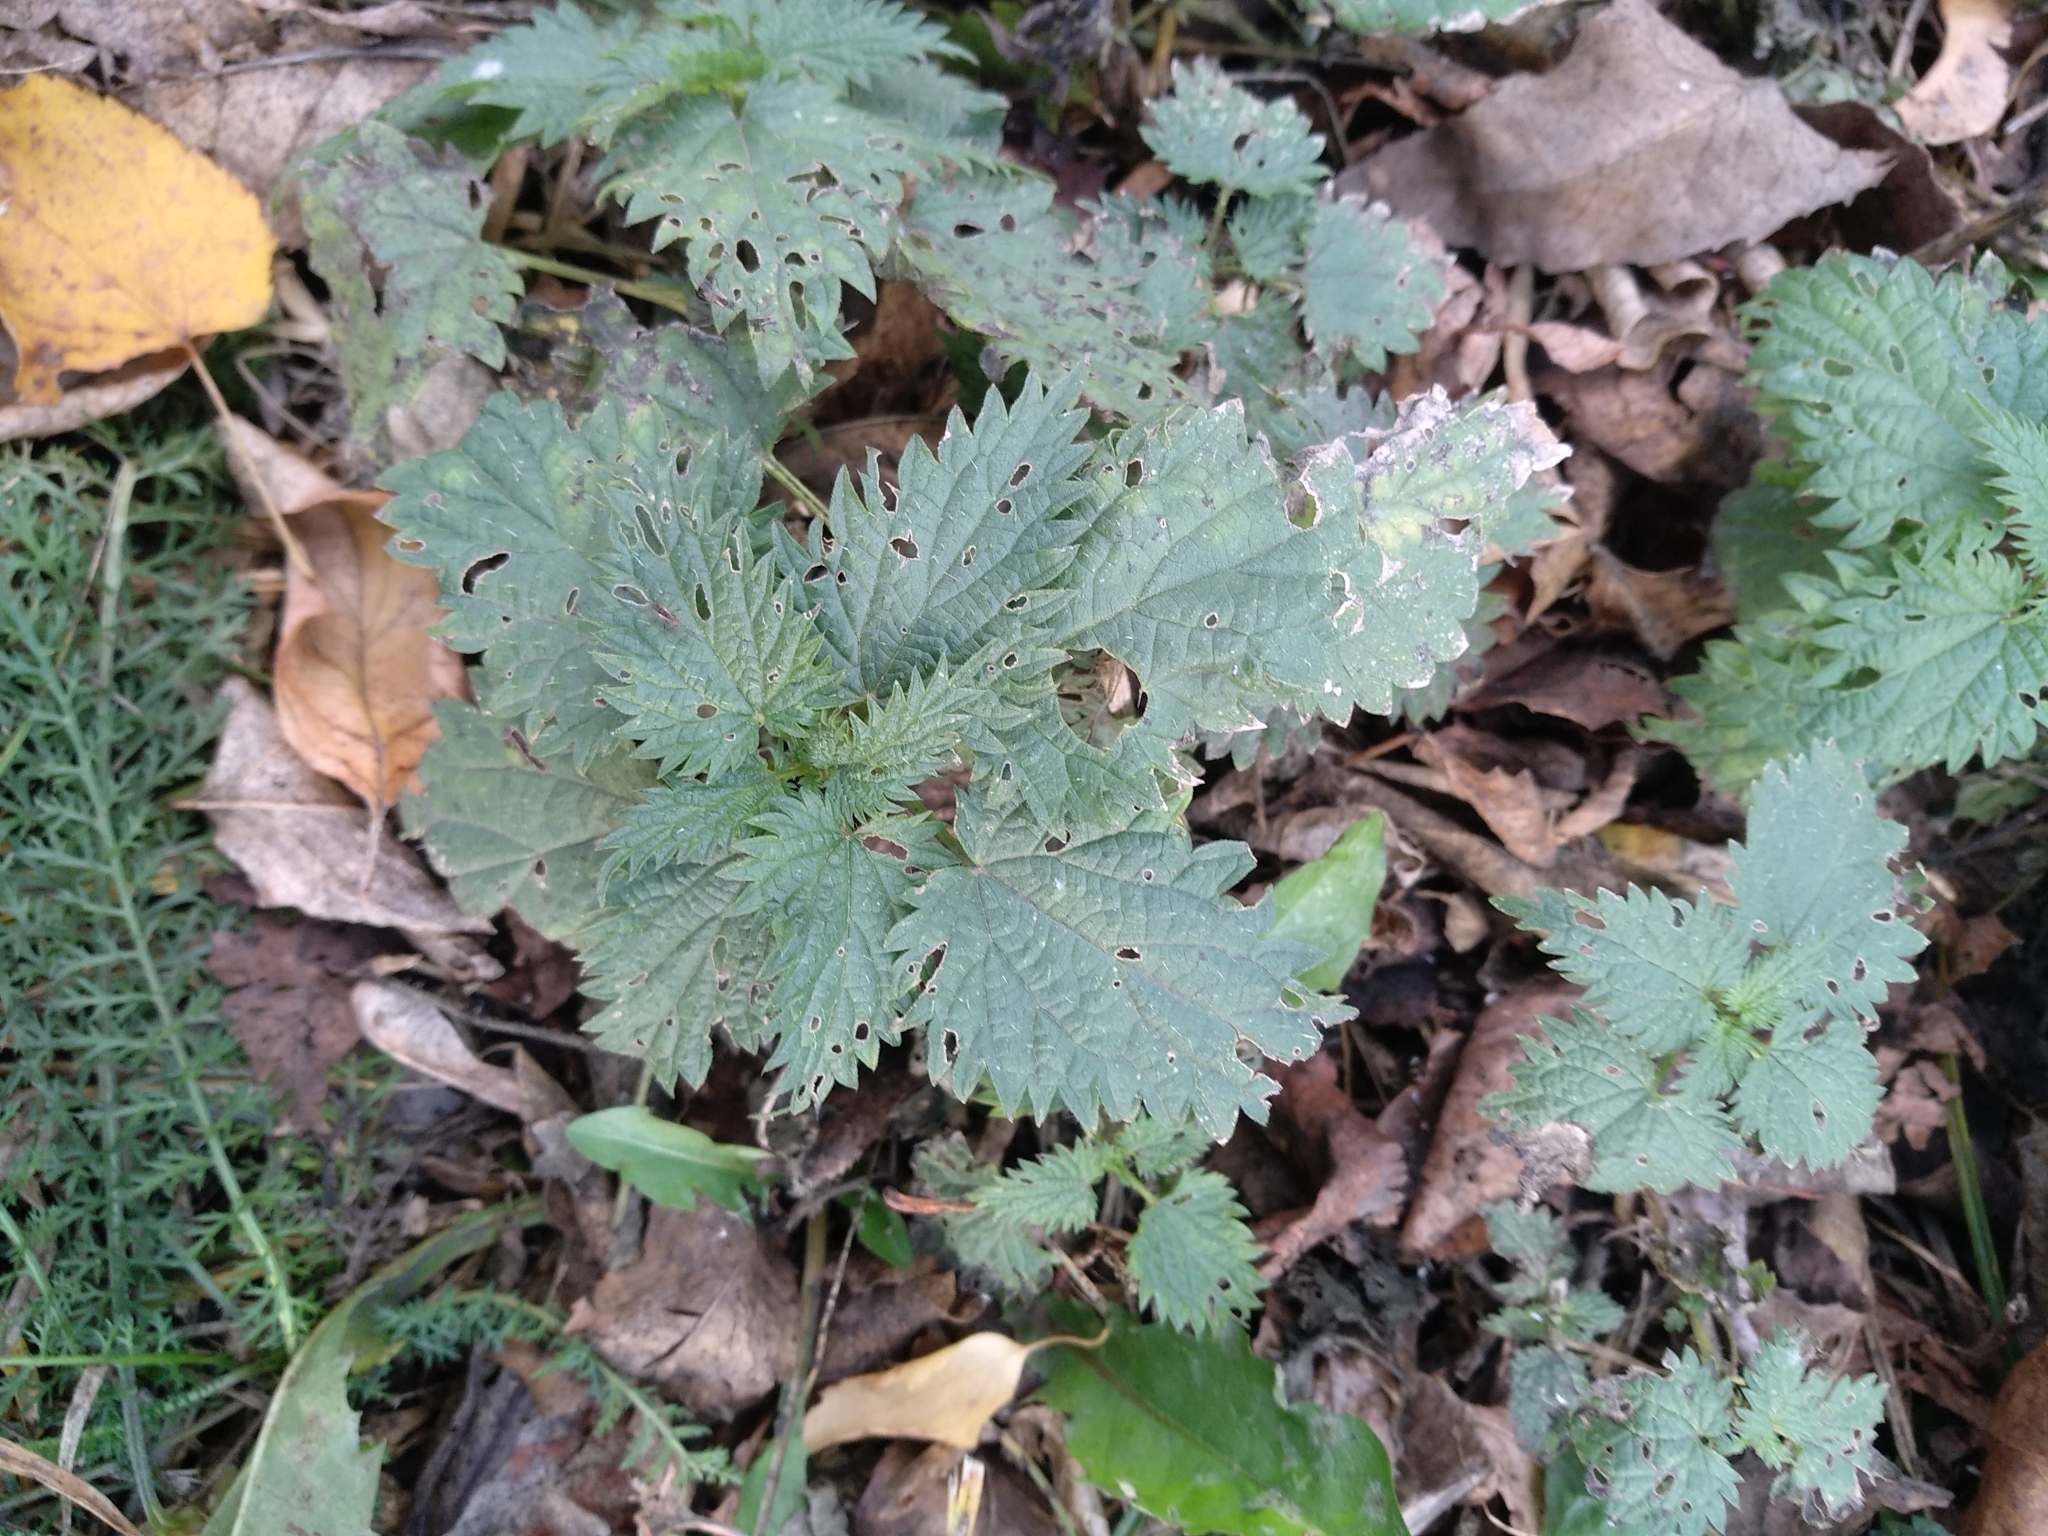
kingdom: Plantae
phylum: Tracheophyta
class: Magnoliopsida
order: Rosales
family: Urticaceae
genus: Urtica
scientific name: Urtica dioica
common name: Common nettle
